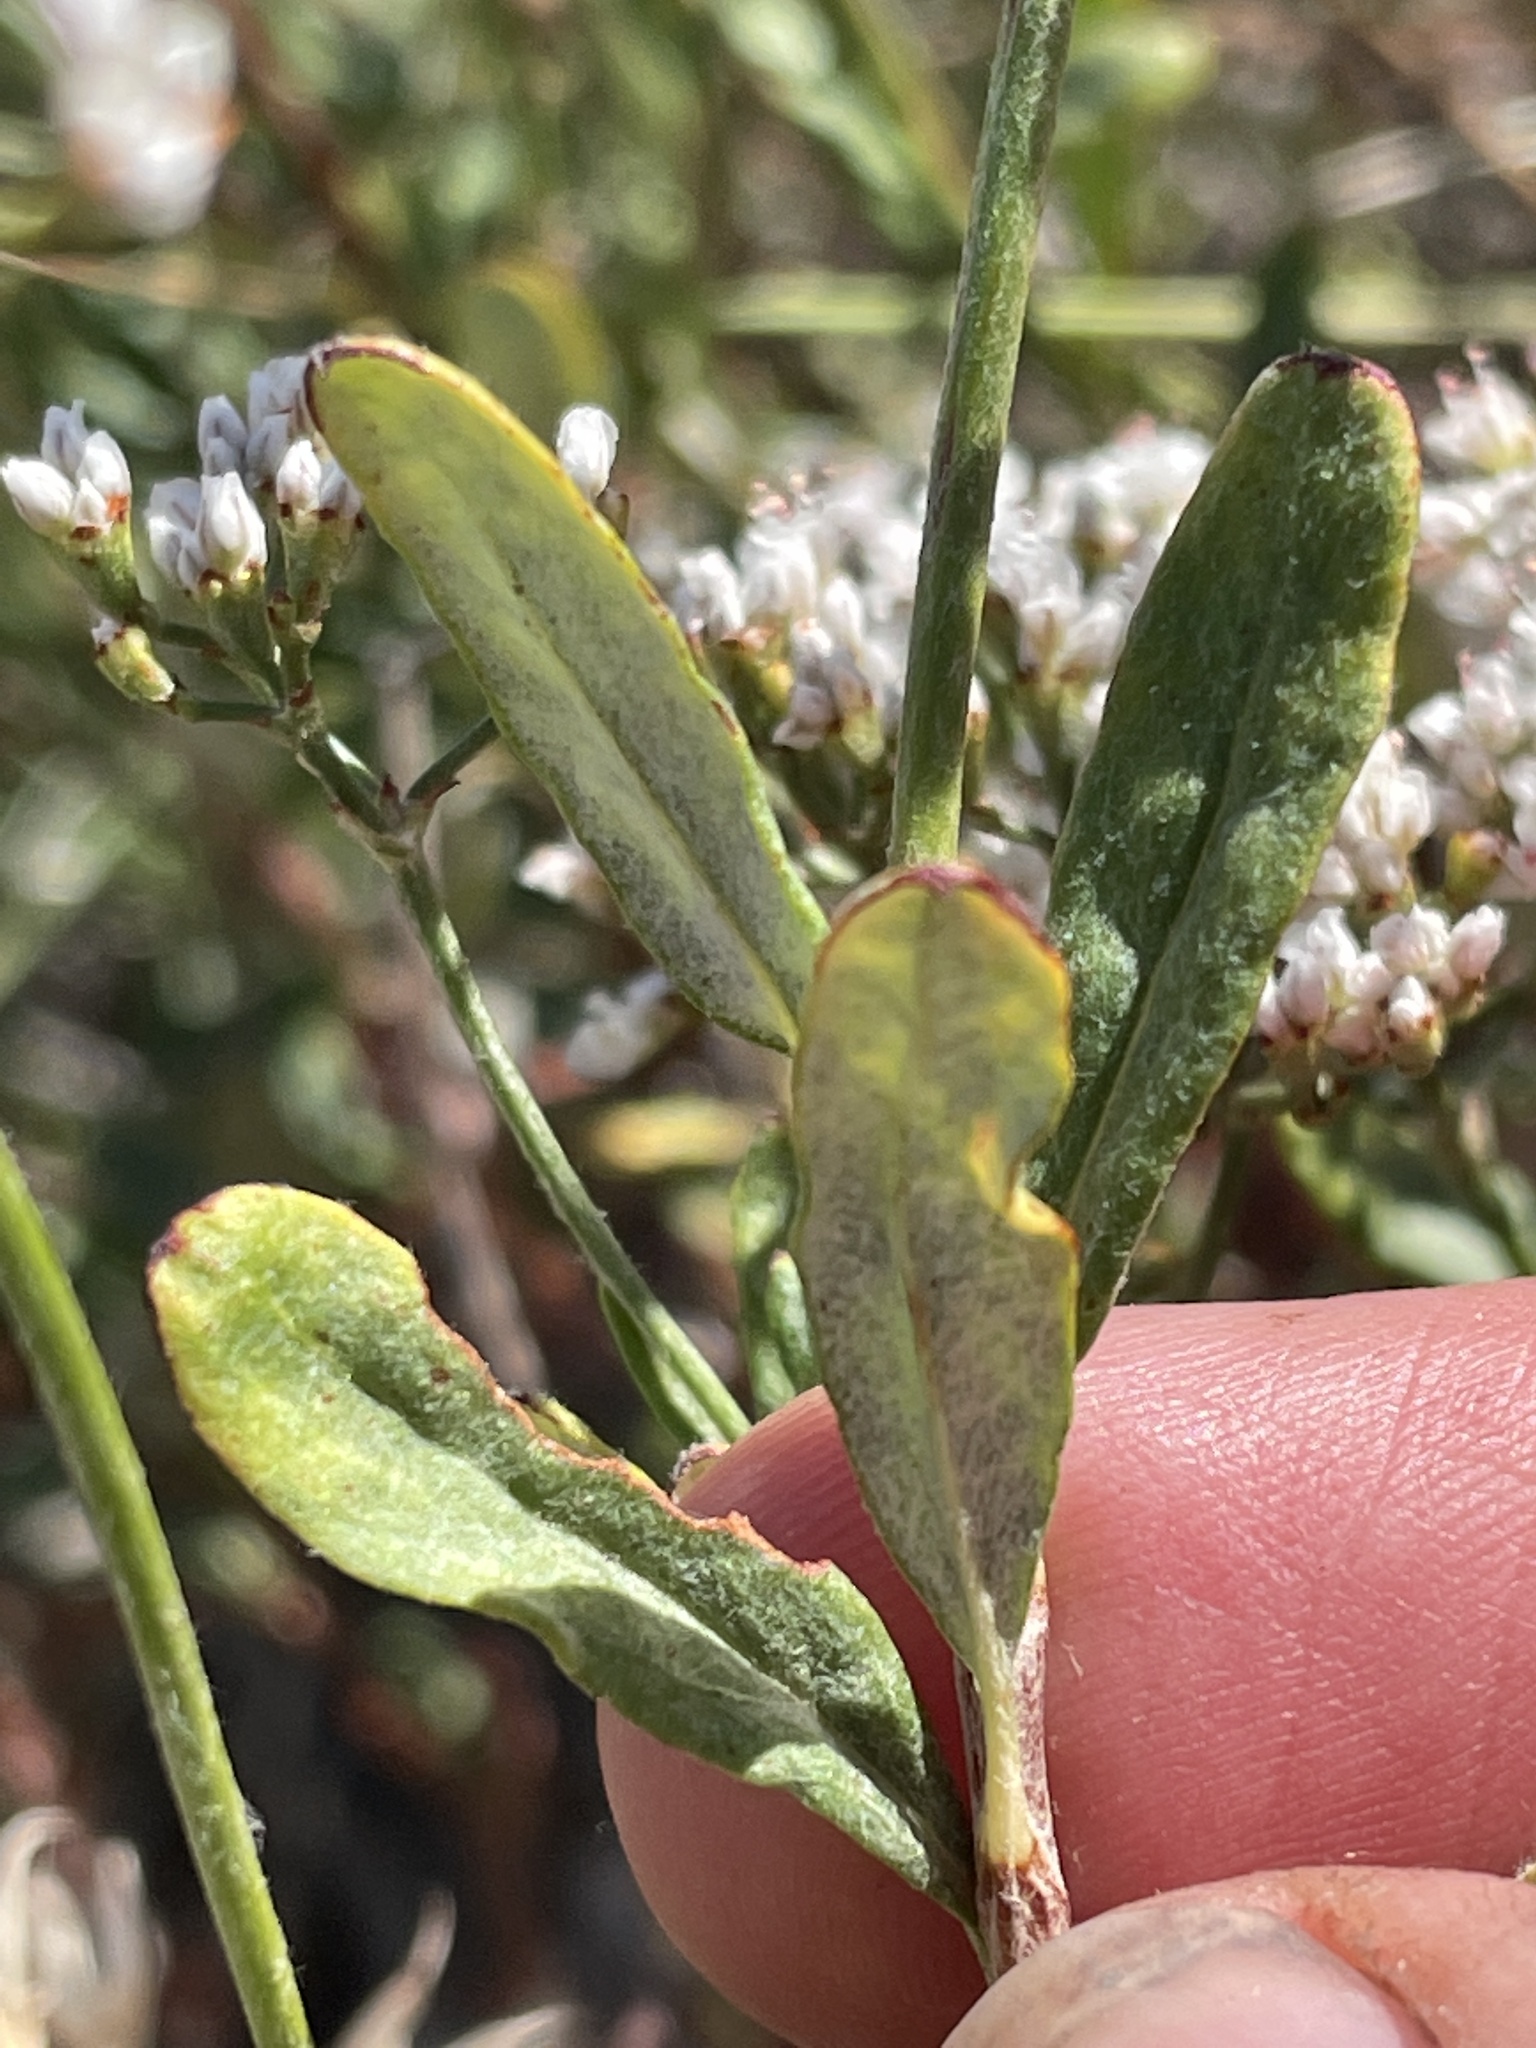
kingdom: Plantae
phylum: Tracheophyta
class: Magnoliopsida
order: Caryophyllales
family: Polygonaceae
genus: Eriogonum
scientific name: Eriogonum microtheca
